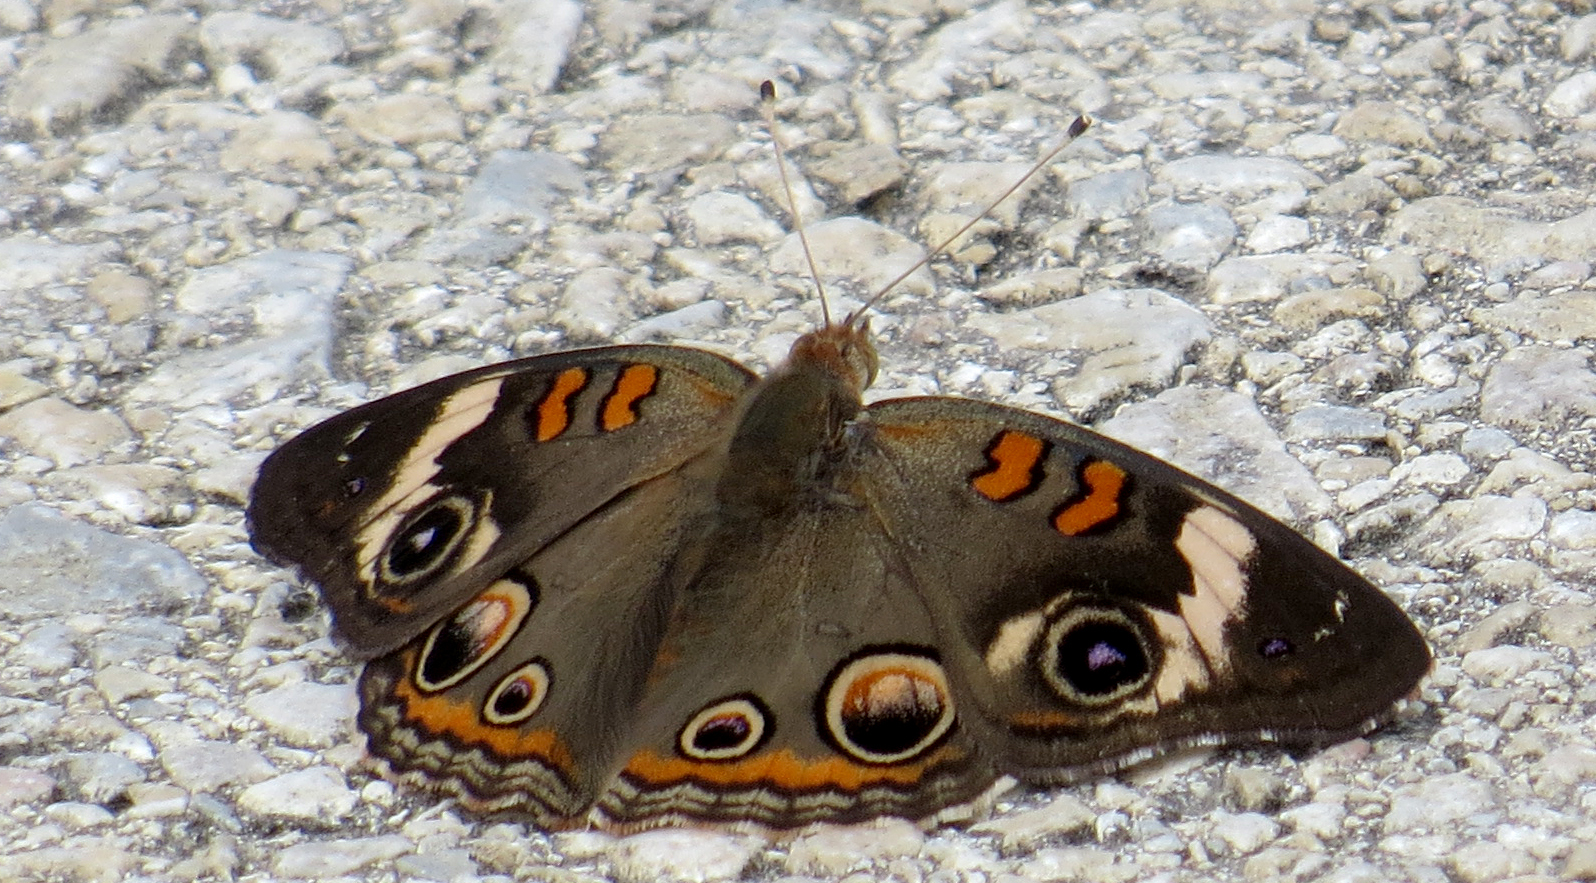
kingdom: Animalia
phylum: Arthropoda
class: Insecta
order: Lepidoptera
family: Nymphalidae
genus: Junonia
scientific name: Junonia coenia
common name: Common buckeye
